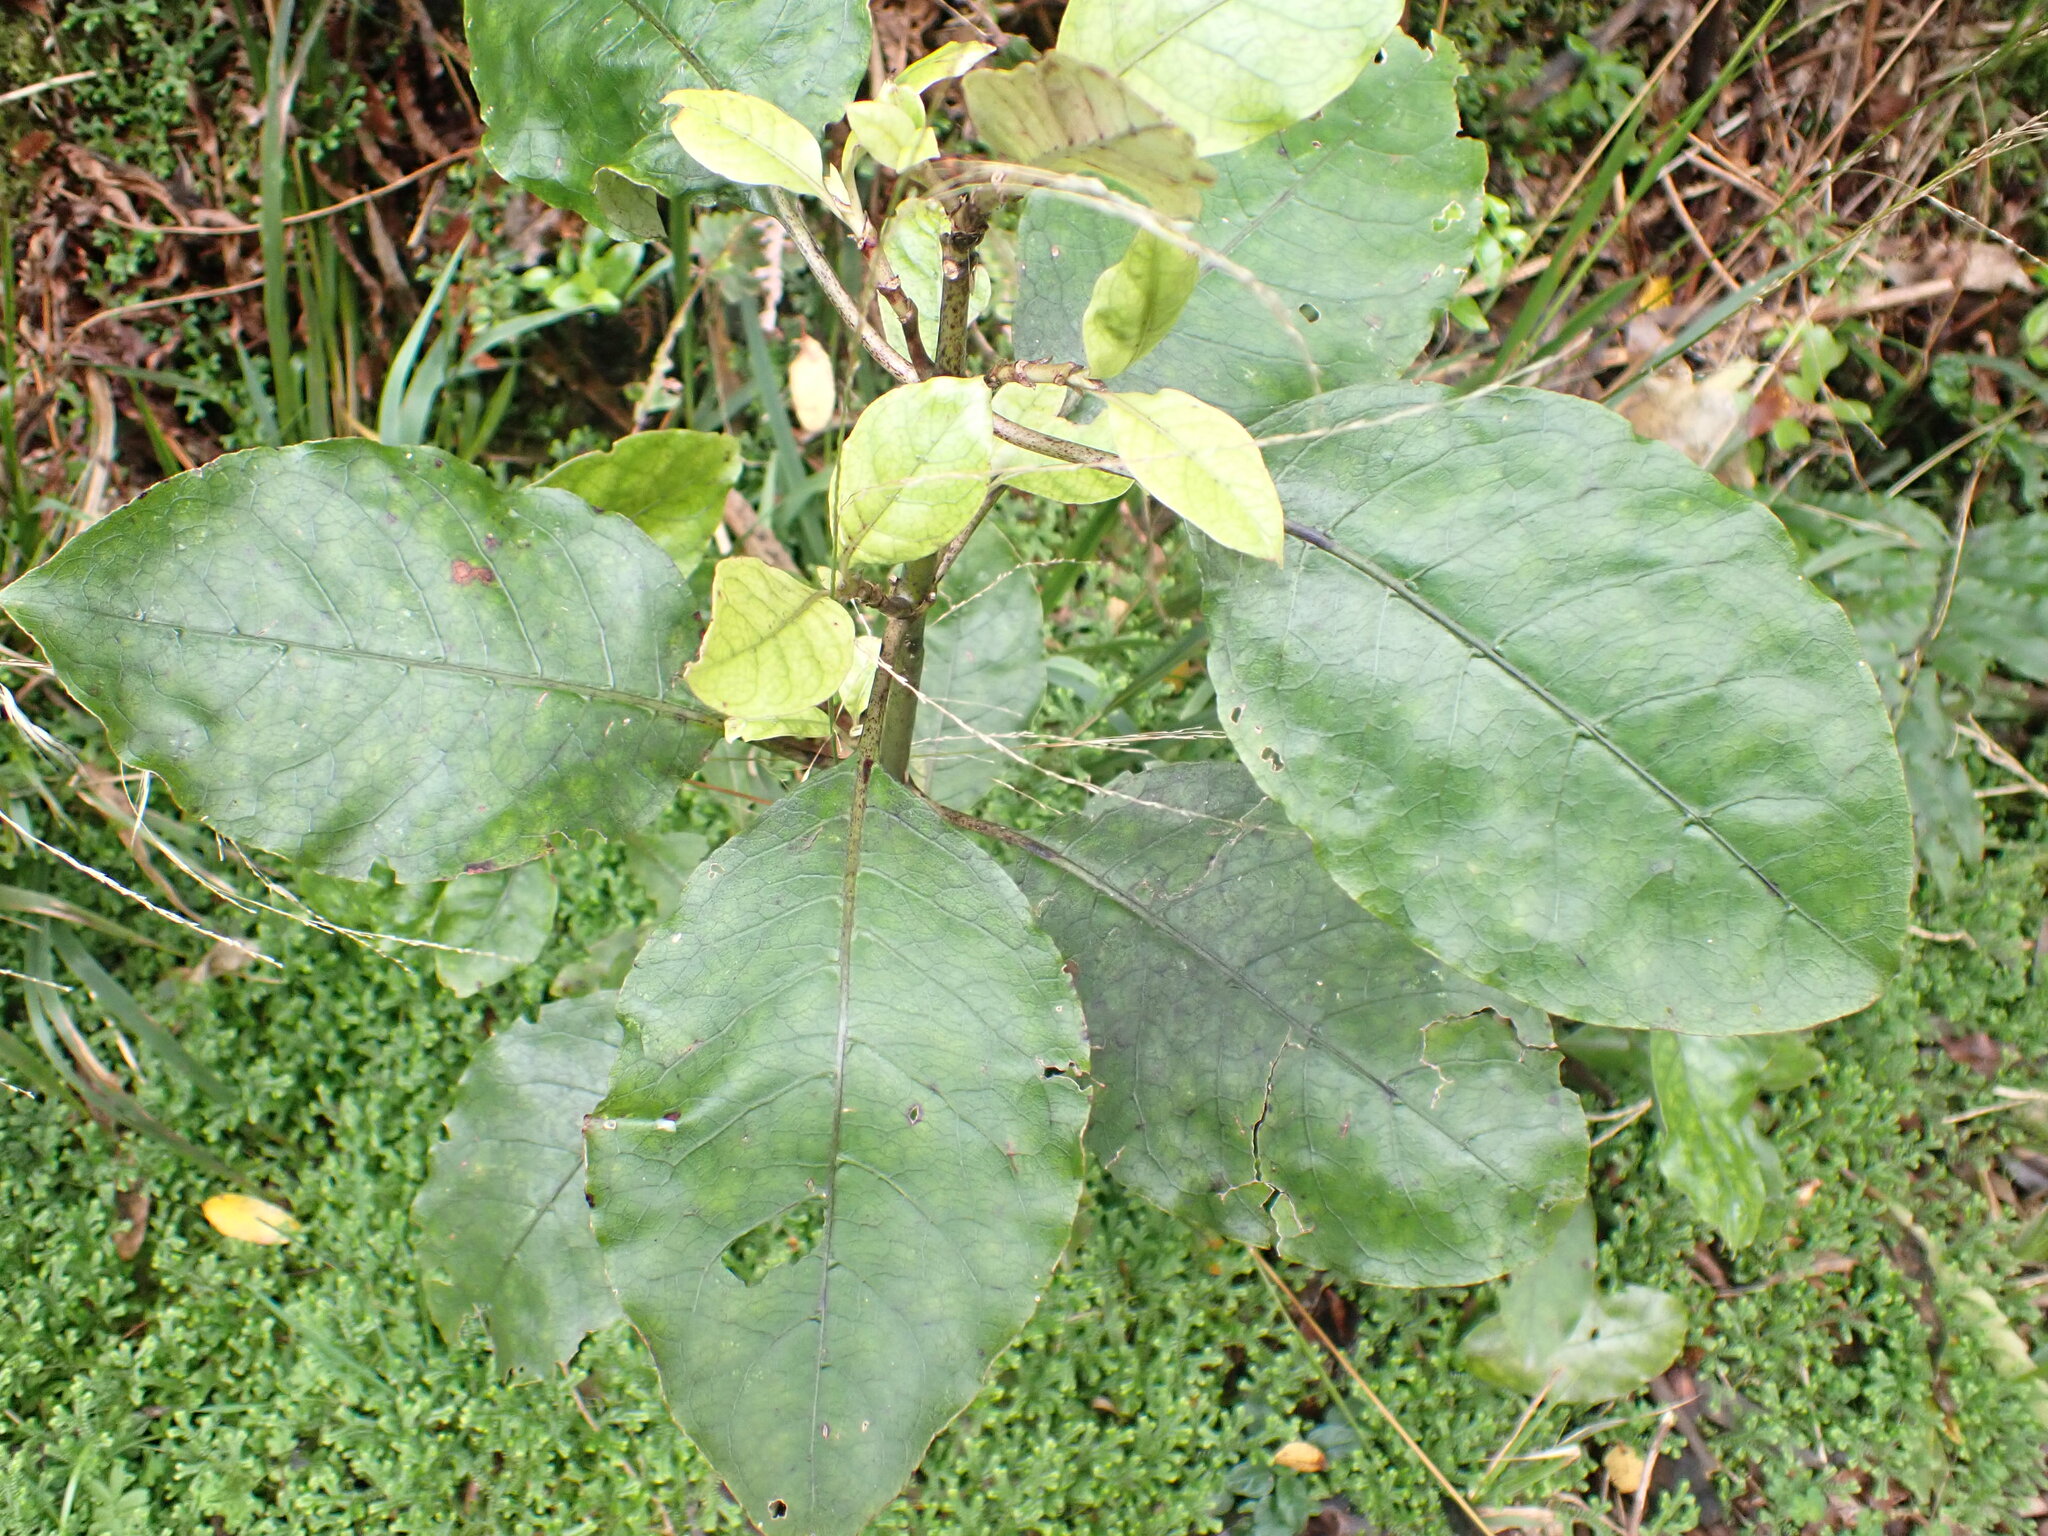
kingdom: Plantae
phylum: Tracheophyta
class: Magnoliopsida
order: Gentianales
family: Rubiaceae
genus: Coprosma
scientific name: Coprosma autumnalis
